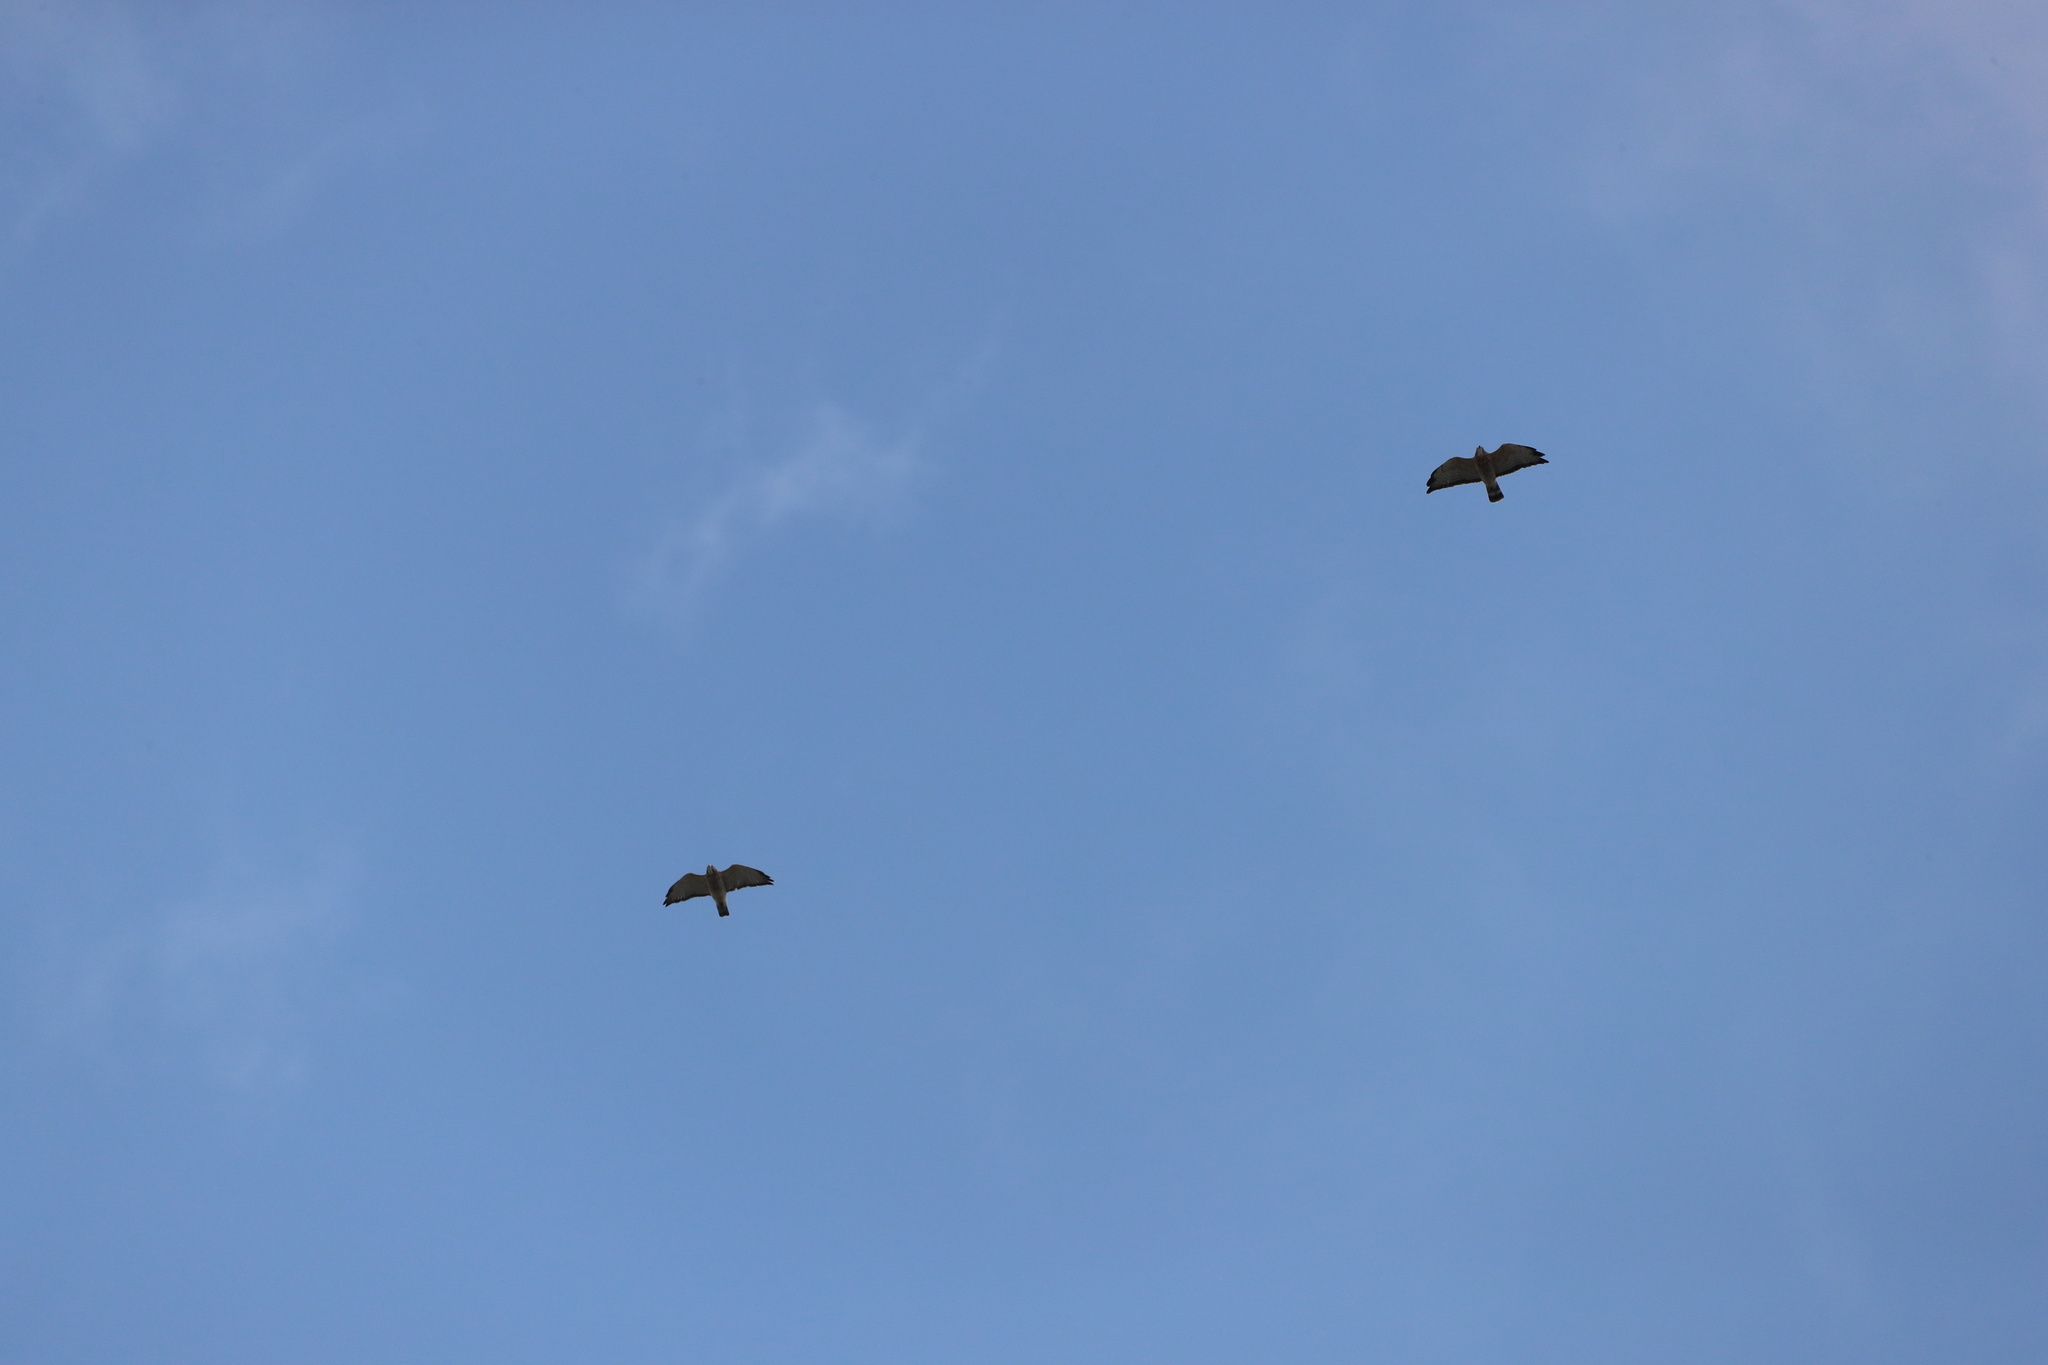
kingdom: Animalia
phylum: Chordata
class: Aves
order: Accipitriformes
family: Accipitridae
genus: Buteo
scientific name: Buteo platypterus
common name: Broad-winged hawk
